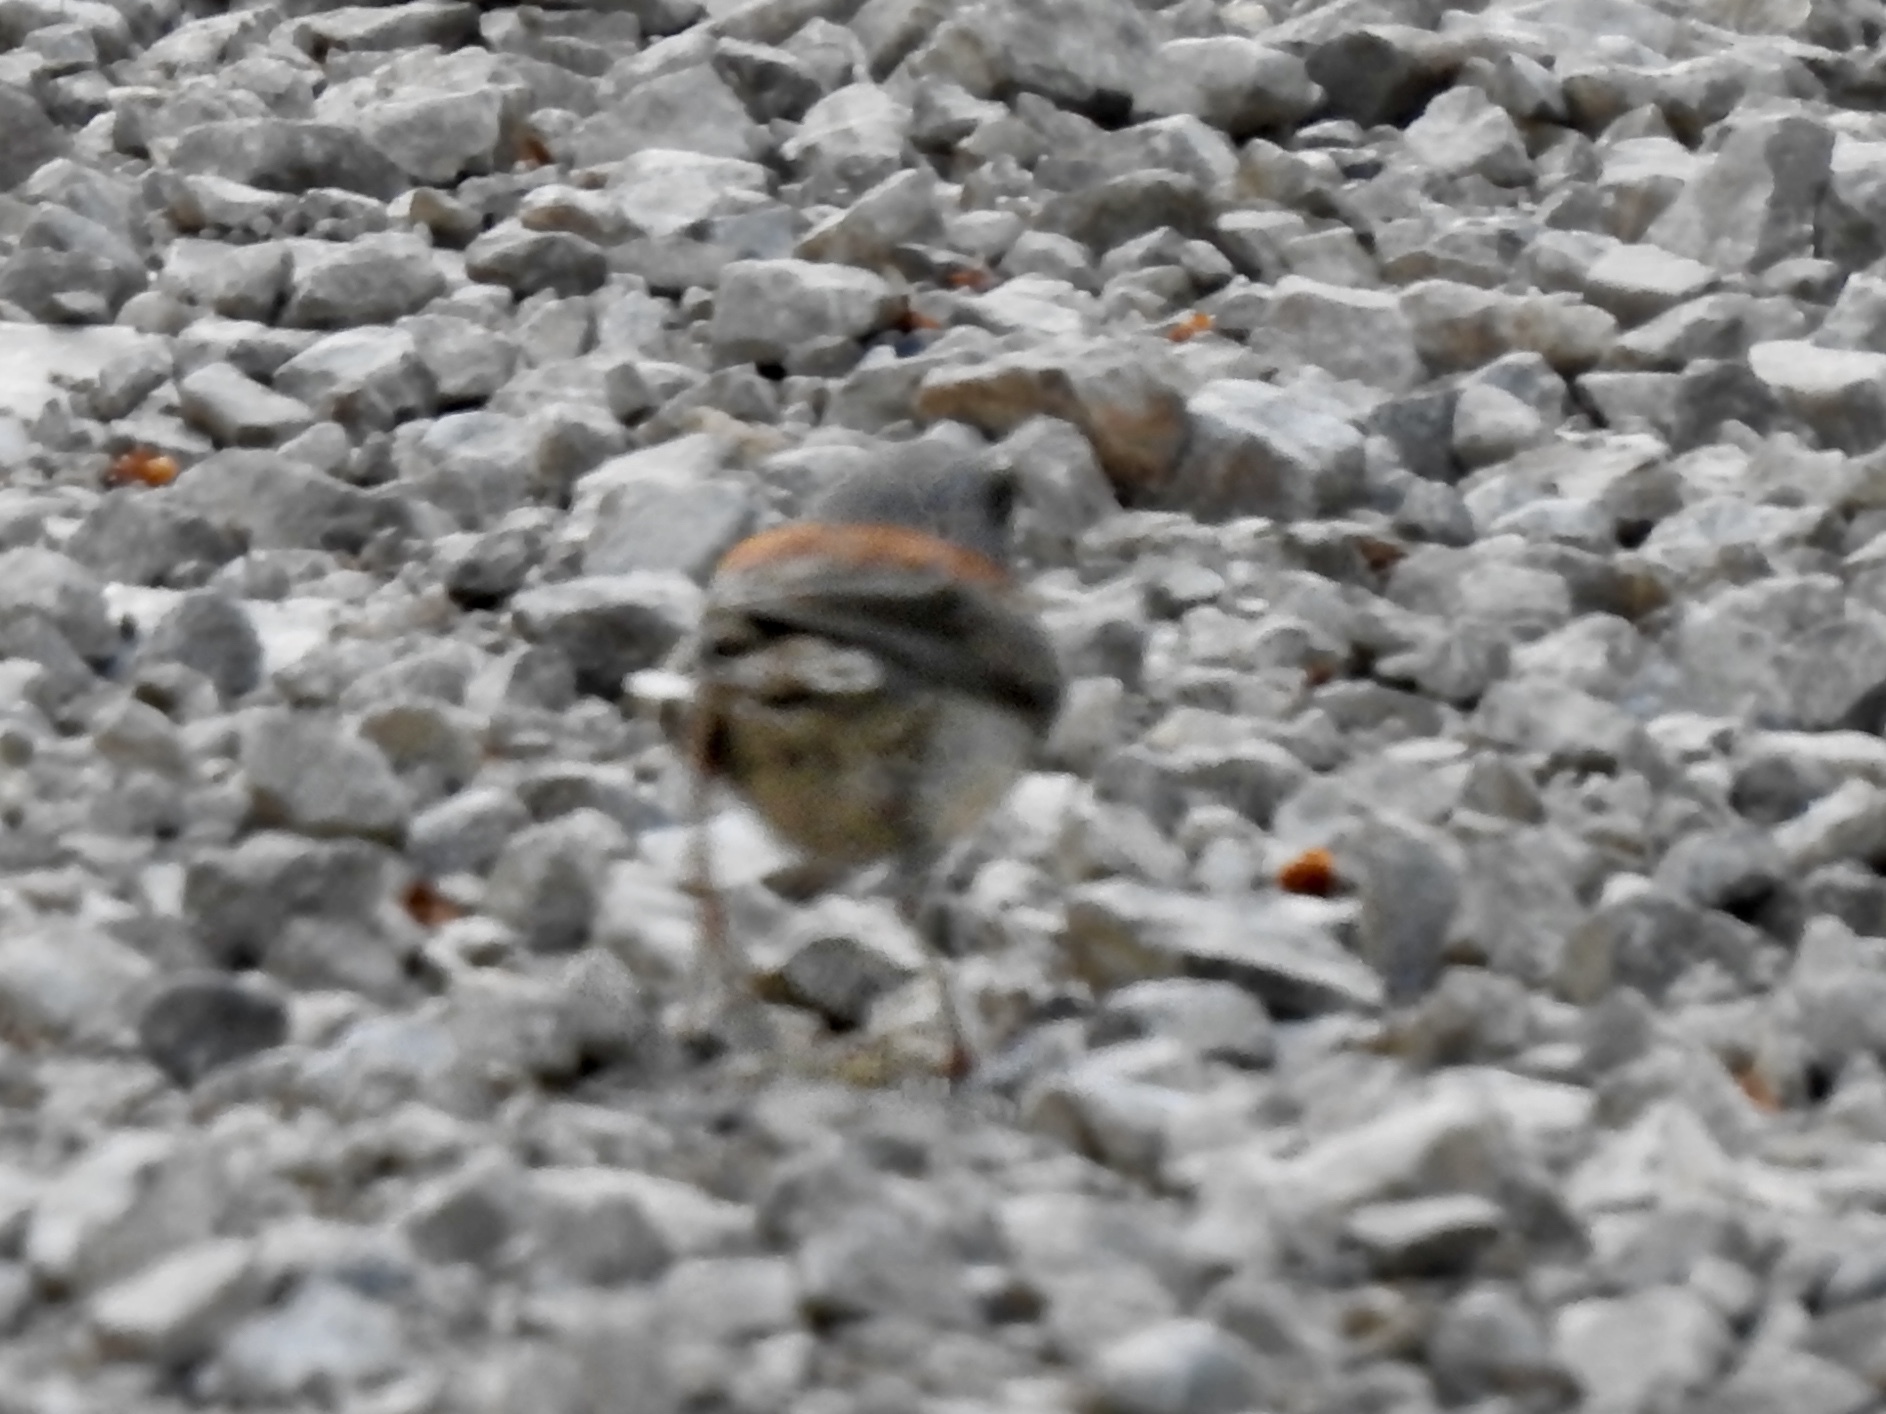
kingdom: Animalia
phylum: Chordata
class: Aves
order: Passeriformes
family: Passerellidae
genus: Junco
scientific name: Junco hyemalis
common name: Dark-eyed junco
